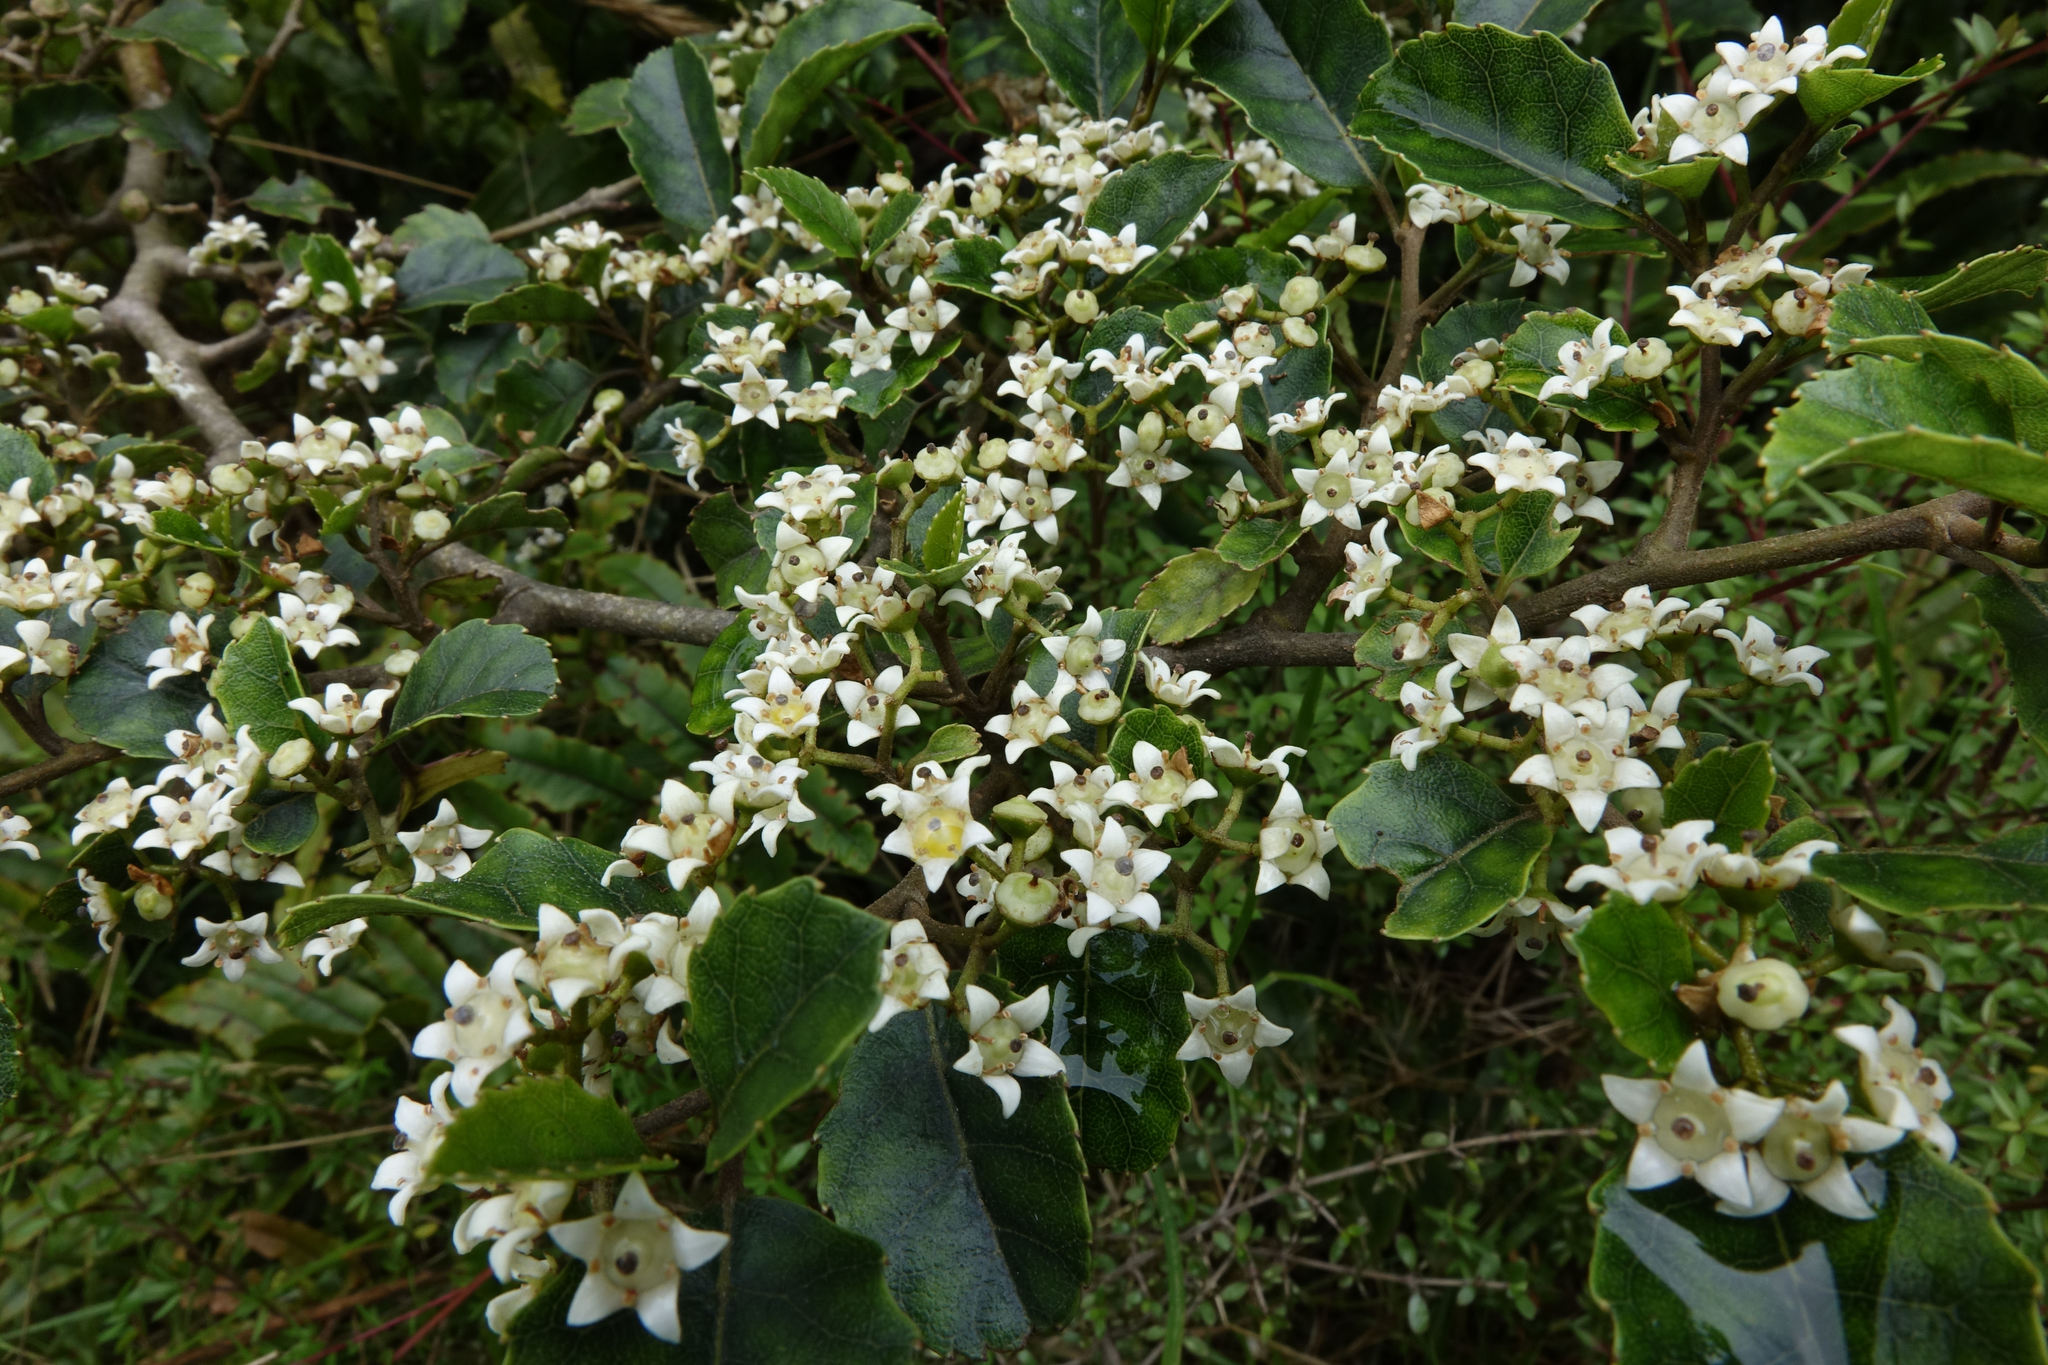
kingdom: Plantae
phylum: Tracheophyta
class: Magnoliopsida
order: Asterales
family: Rousseaceae
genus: Carpodetus
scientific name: Carpodetus serratus
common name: White mapau
